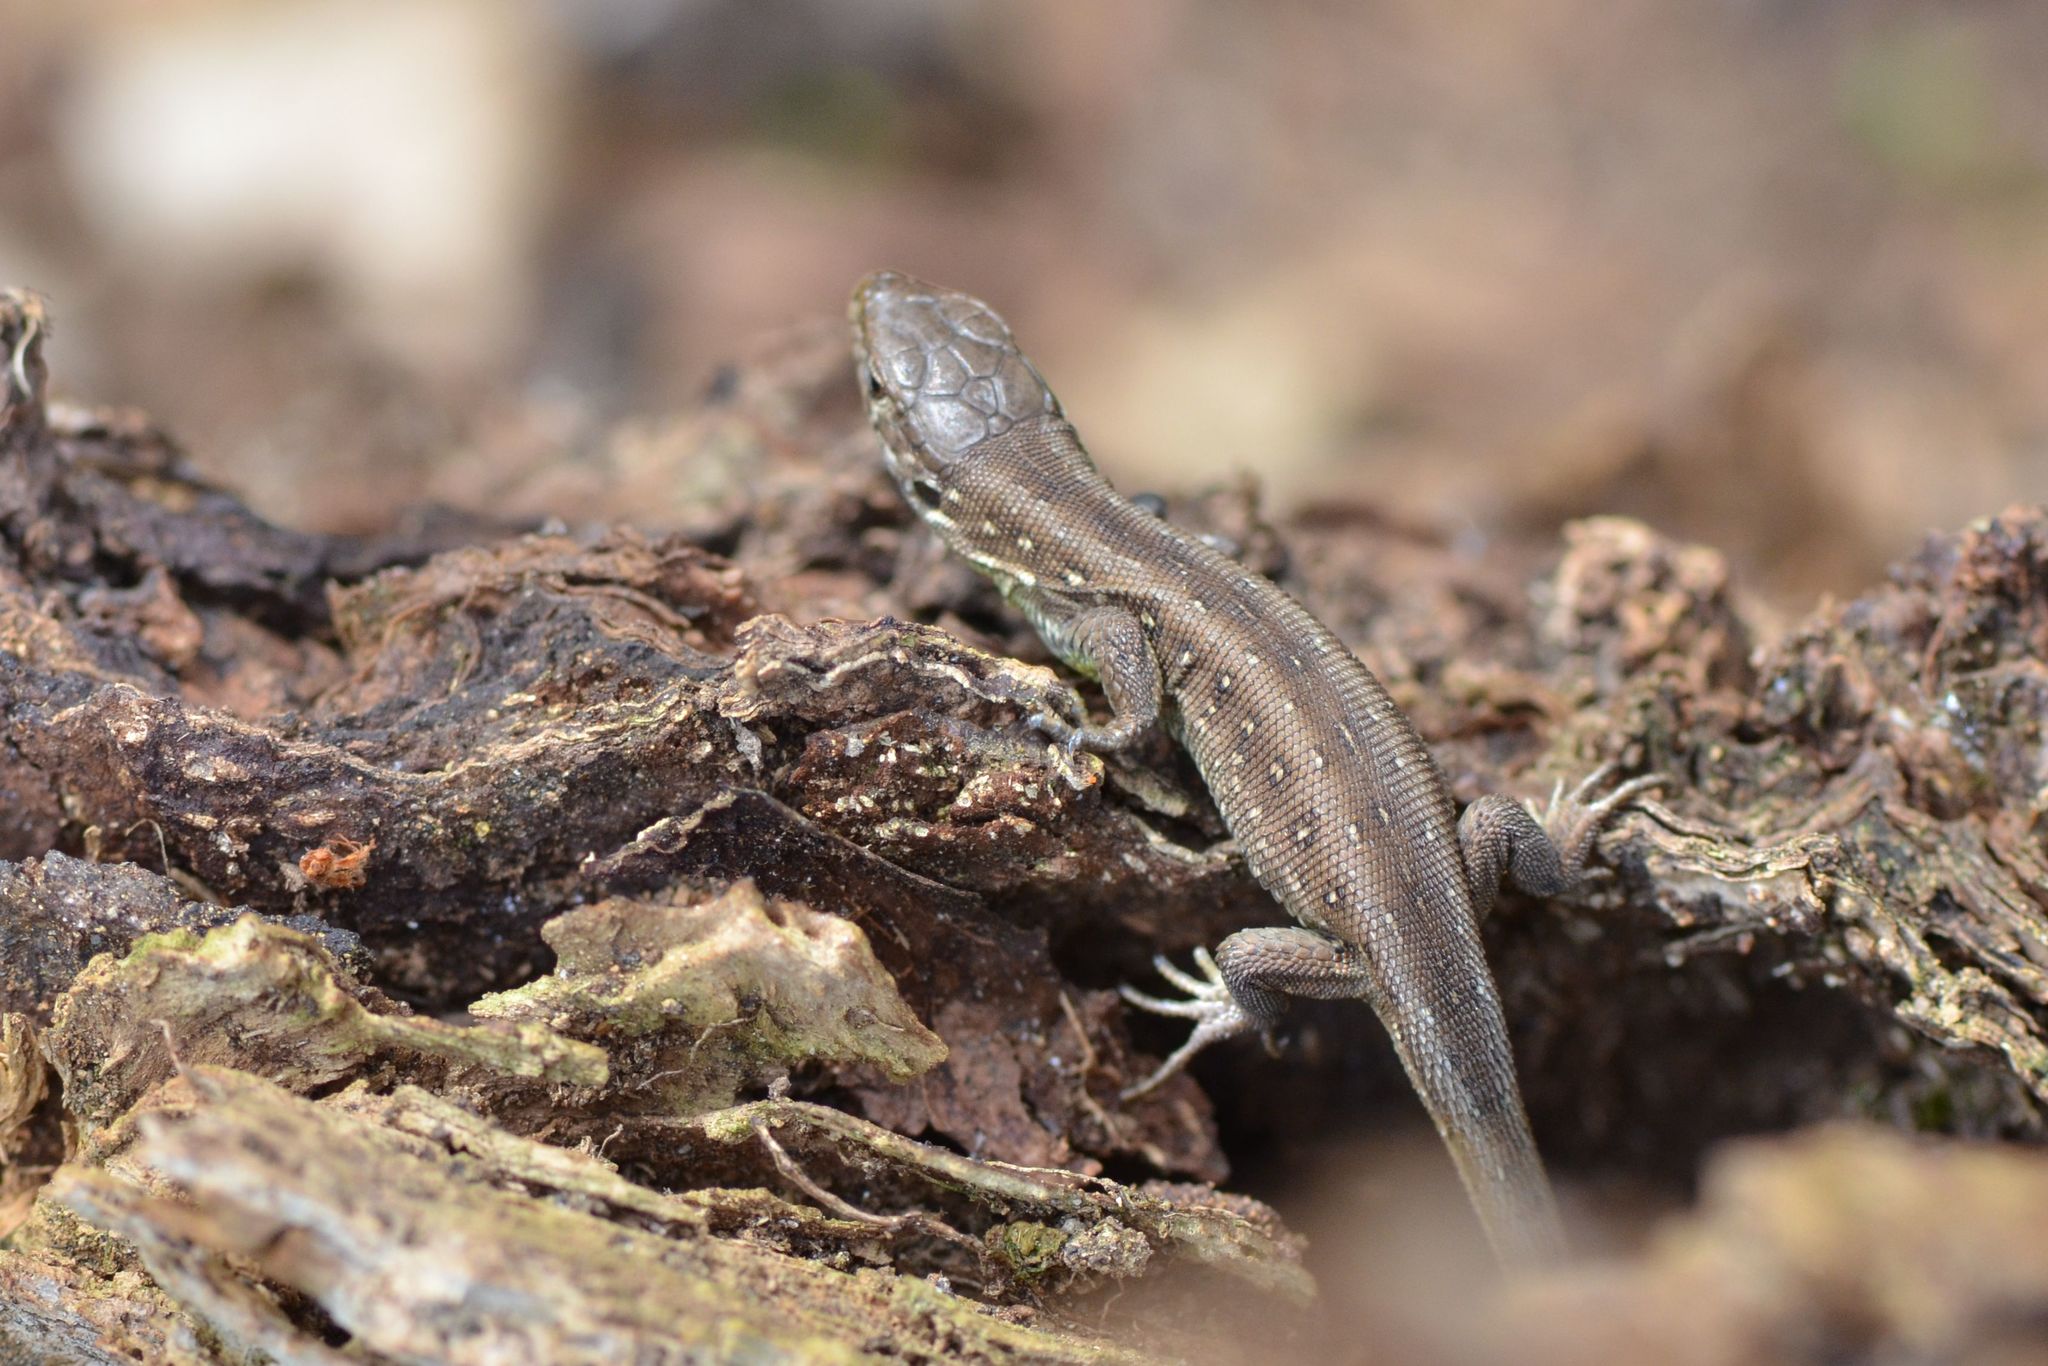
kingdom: Animalia
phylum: Chordata
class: Squamata
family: Lacertidae
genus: Lacerta
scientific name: Lacerta agilis
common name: Sand lizard
